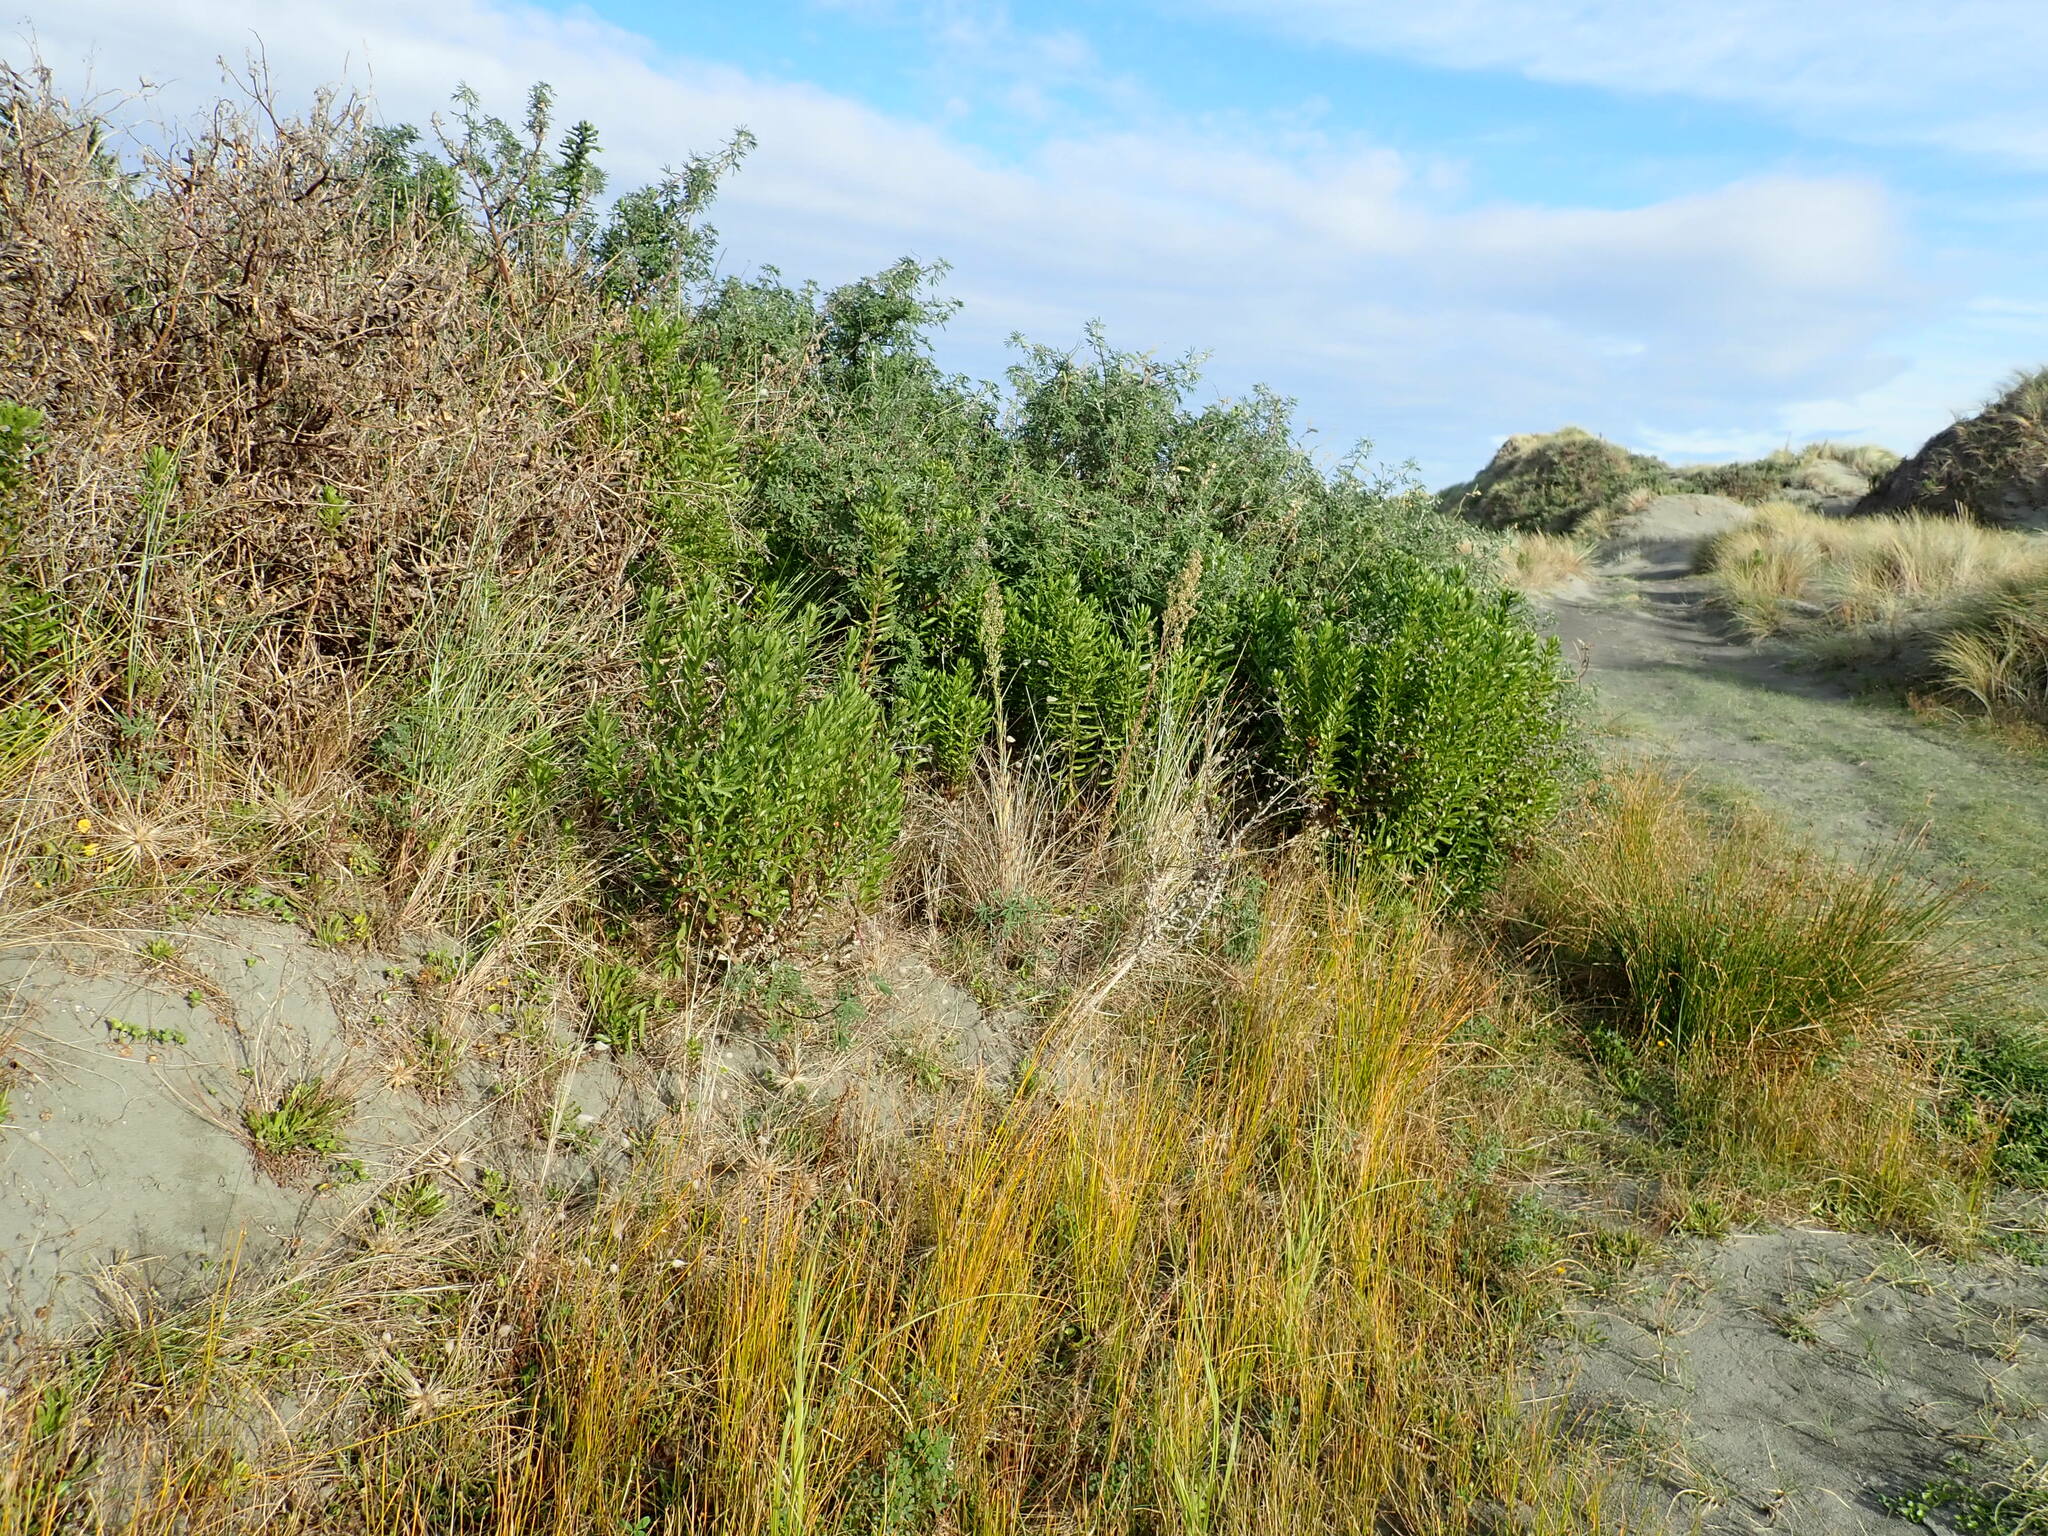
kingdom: Plantae
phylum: Tracheophyta
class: Magnoliopsida
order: Asterales
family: Asteraceae
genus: Senecio
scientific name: Senecio glastifolius
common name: Woad-leaved ragwort
